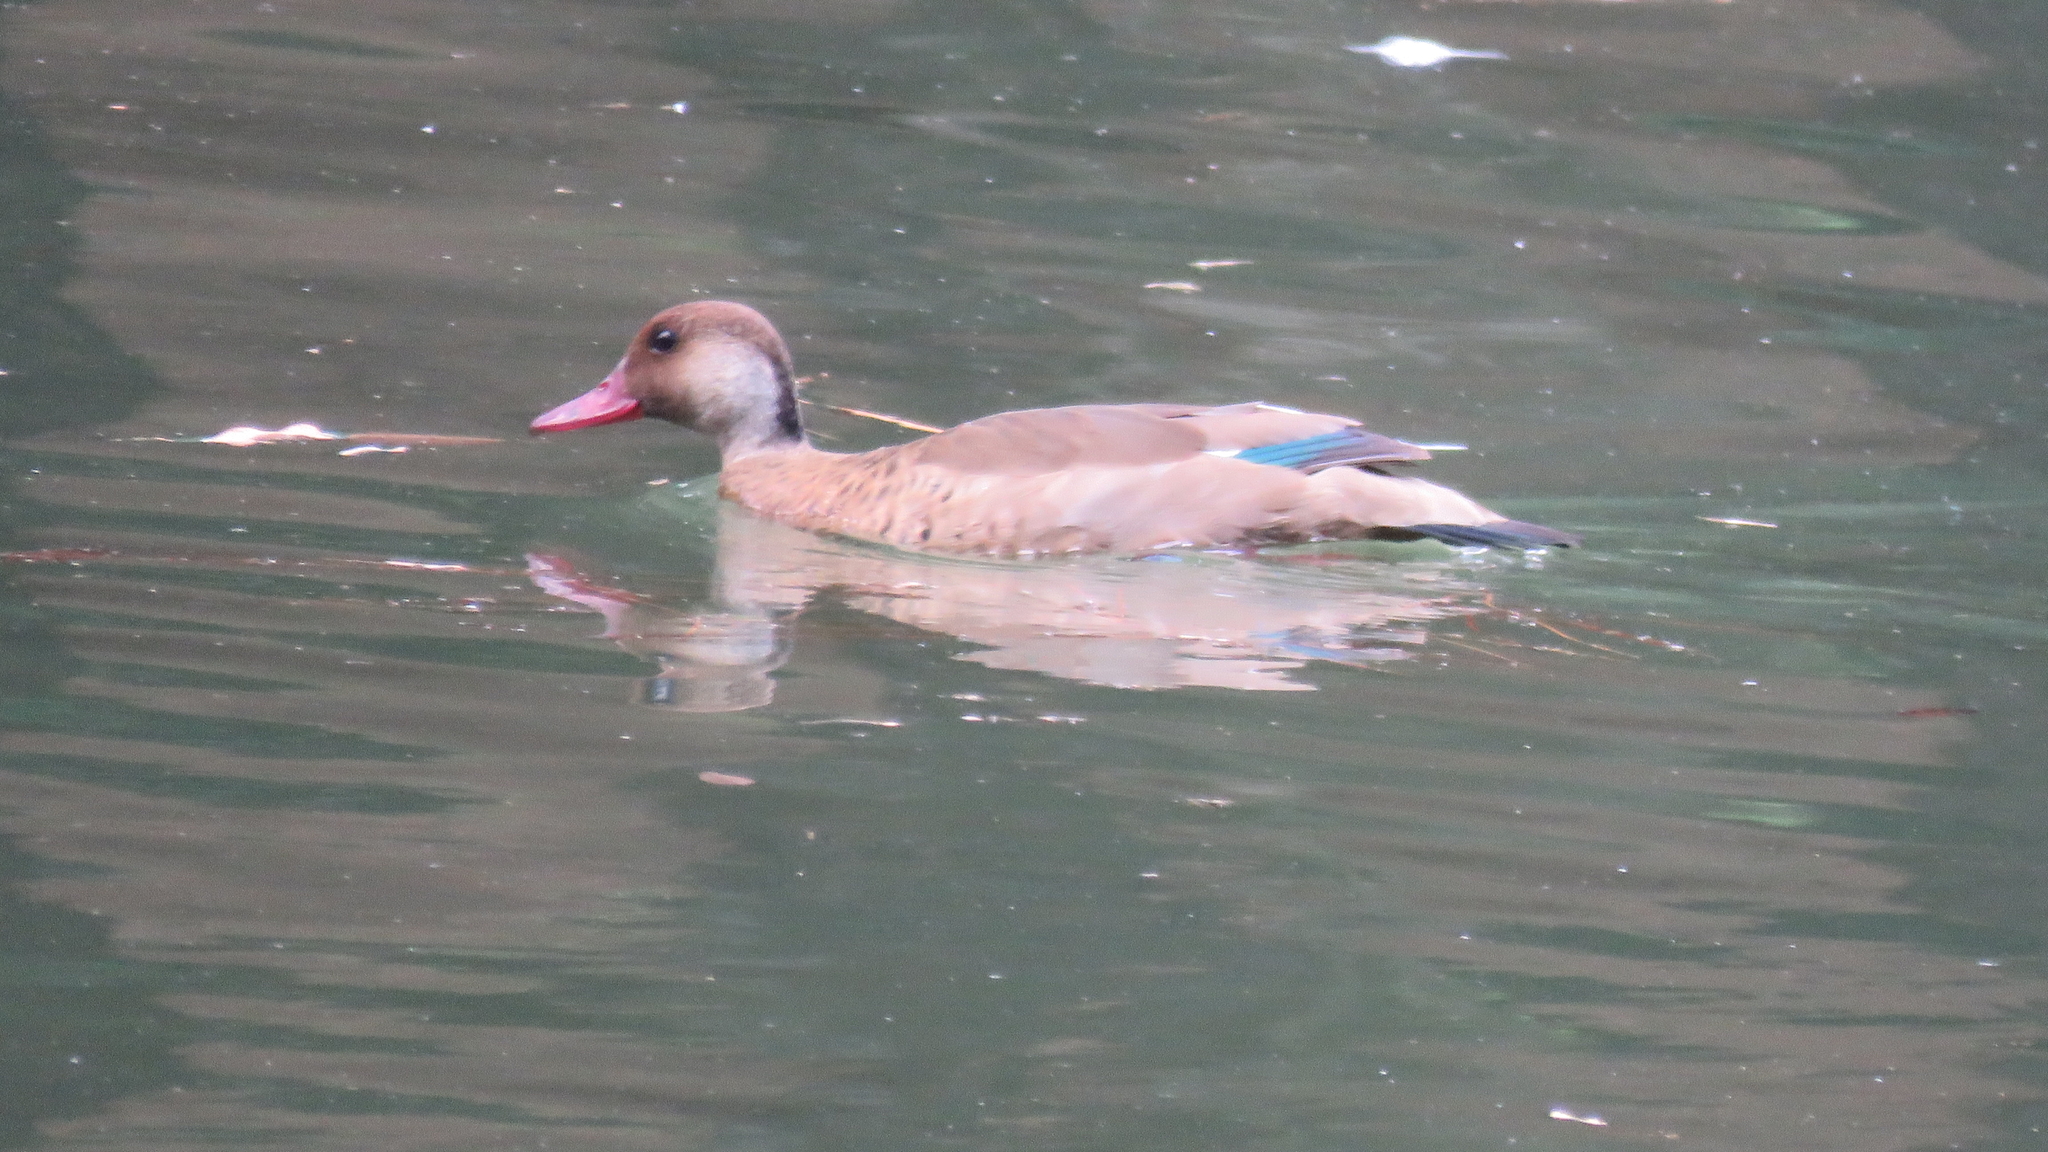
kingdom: Animalia
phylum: Chordata
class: Aves
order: Anseriformes
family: Anatidae
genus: Amazonetta
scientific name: Amazonetta brasiliensis
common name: Brazilian teal
